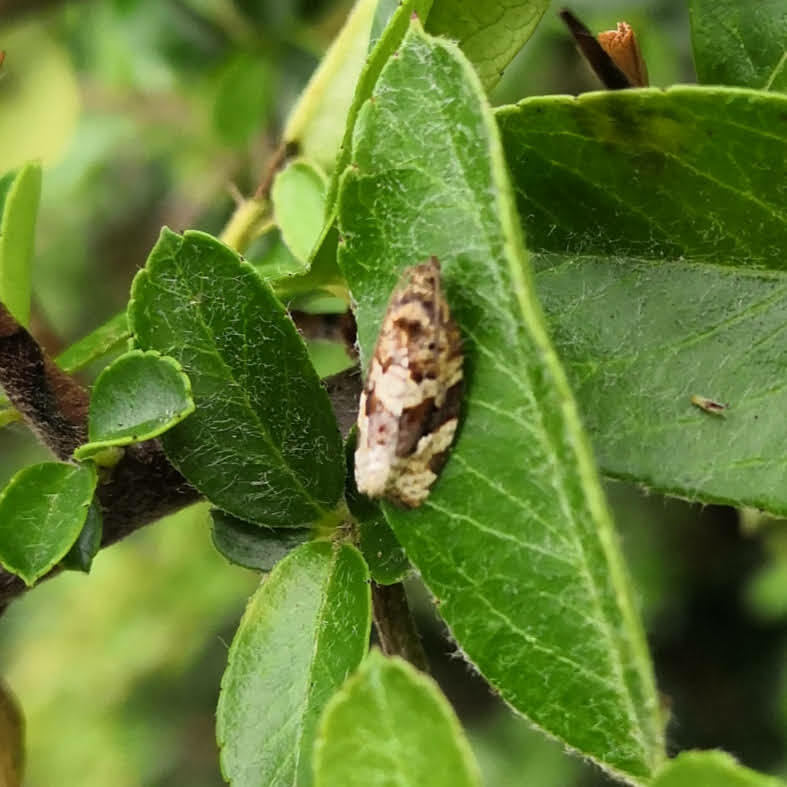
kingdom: Animalia
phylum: Arthropoda
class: Insecta
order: Lepidoptera
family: Tortricidae
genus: Argyrotaenia
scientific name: Argyrotaenia ljungiana
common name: Heather twist
